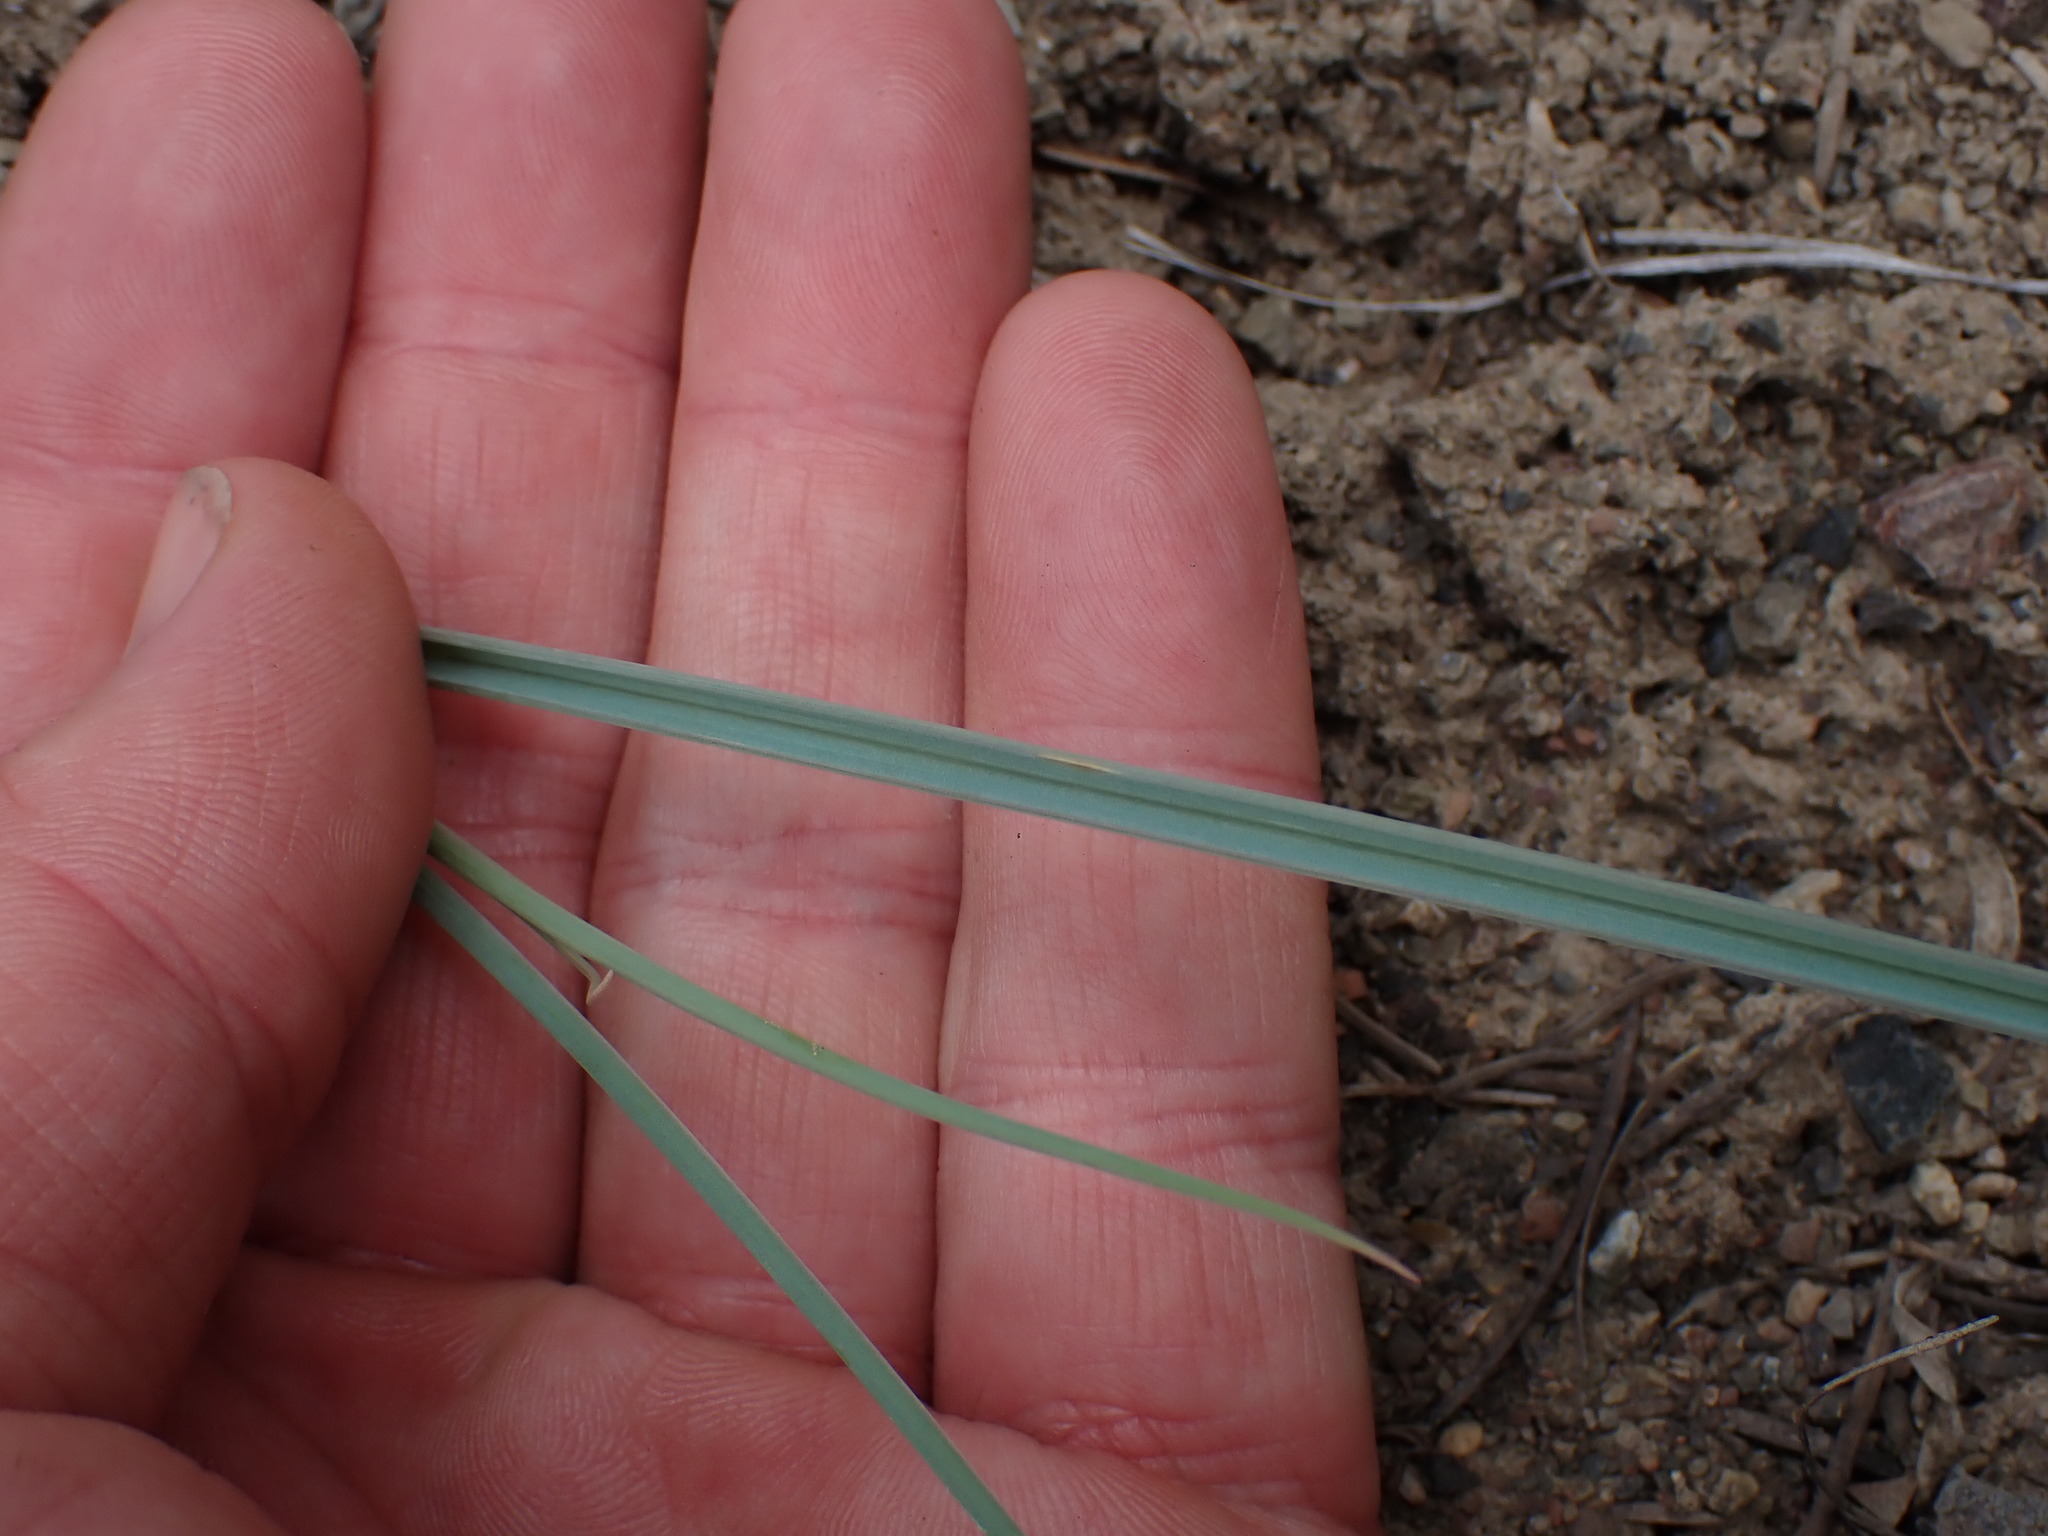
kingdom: Plantae
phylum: Tracheophyta
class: Liliopsida
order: Liliales
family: Liliaceae
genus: Calochortus
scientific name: Calochortus macrocarpus
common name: Green-band mariposa lily
